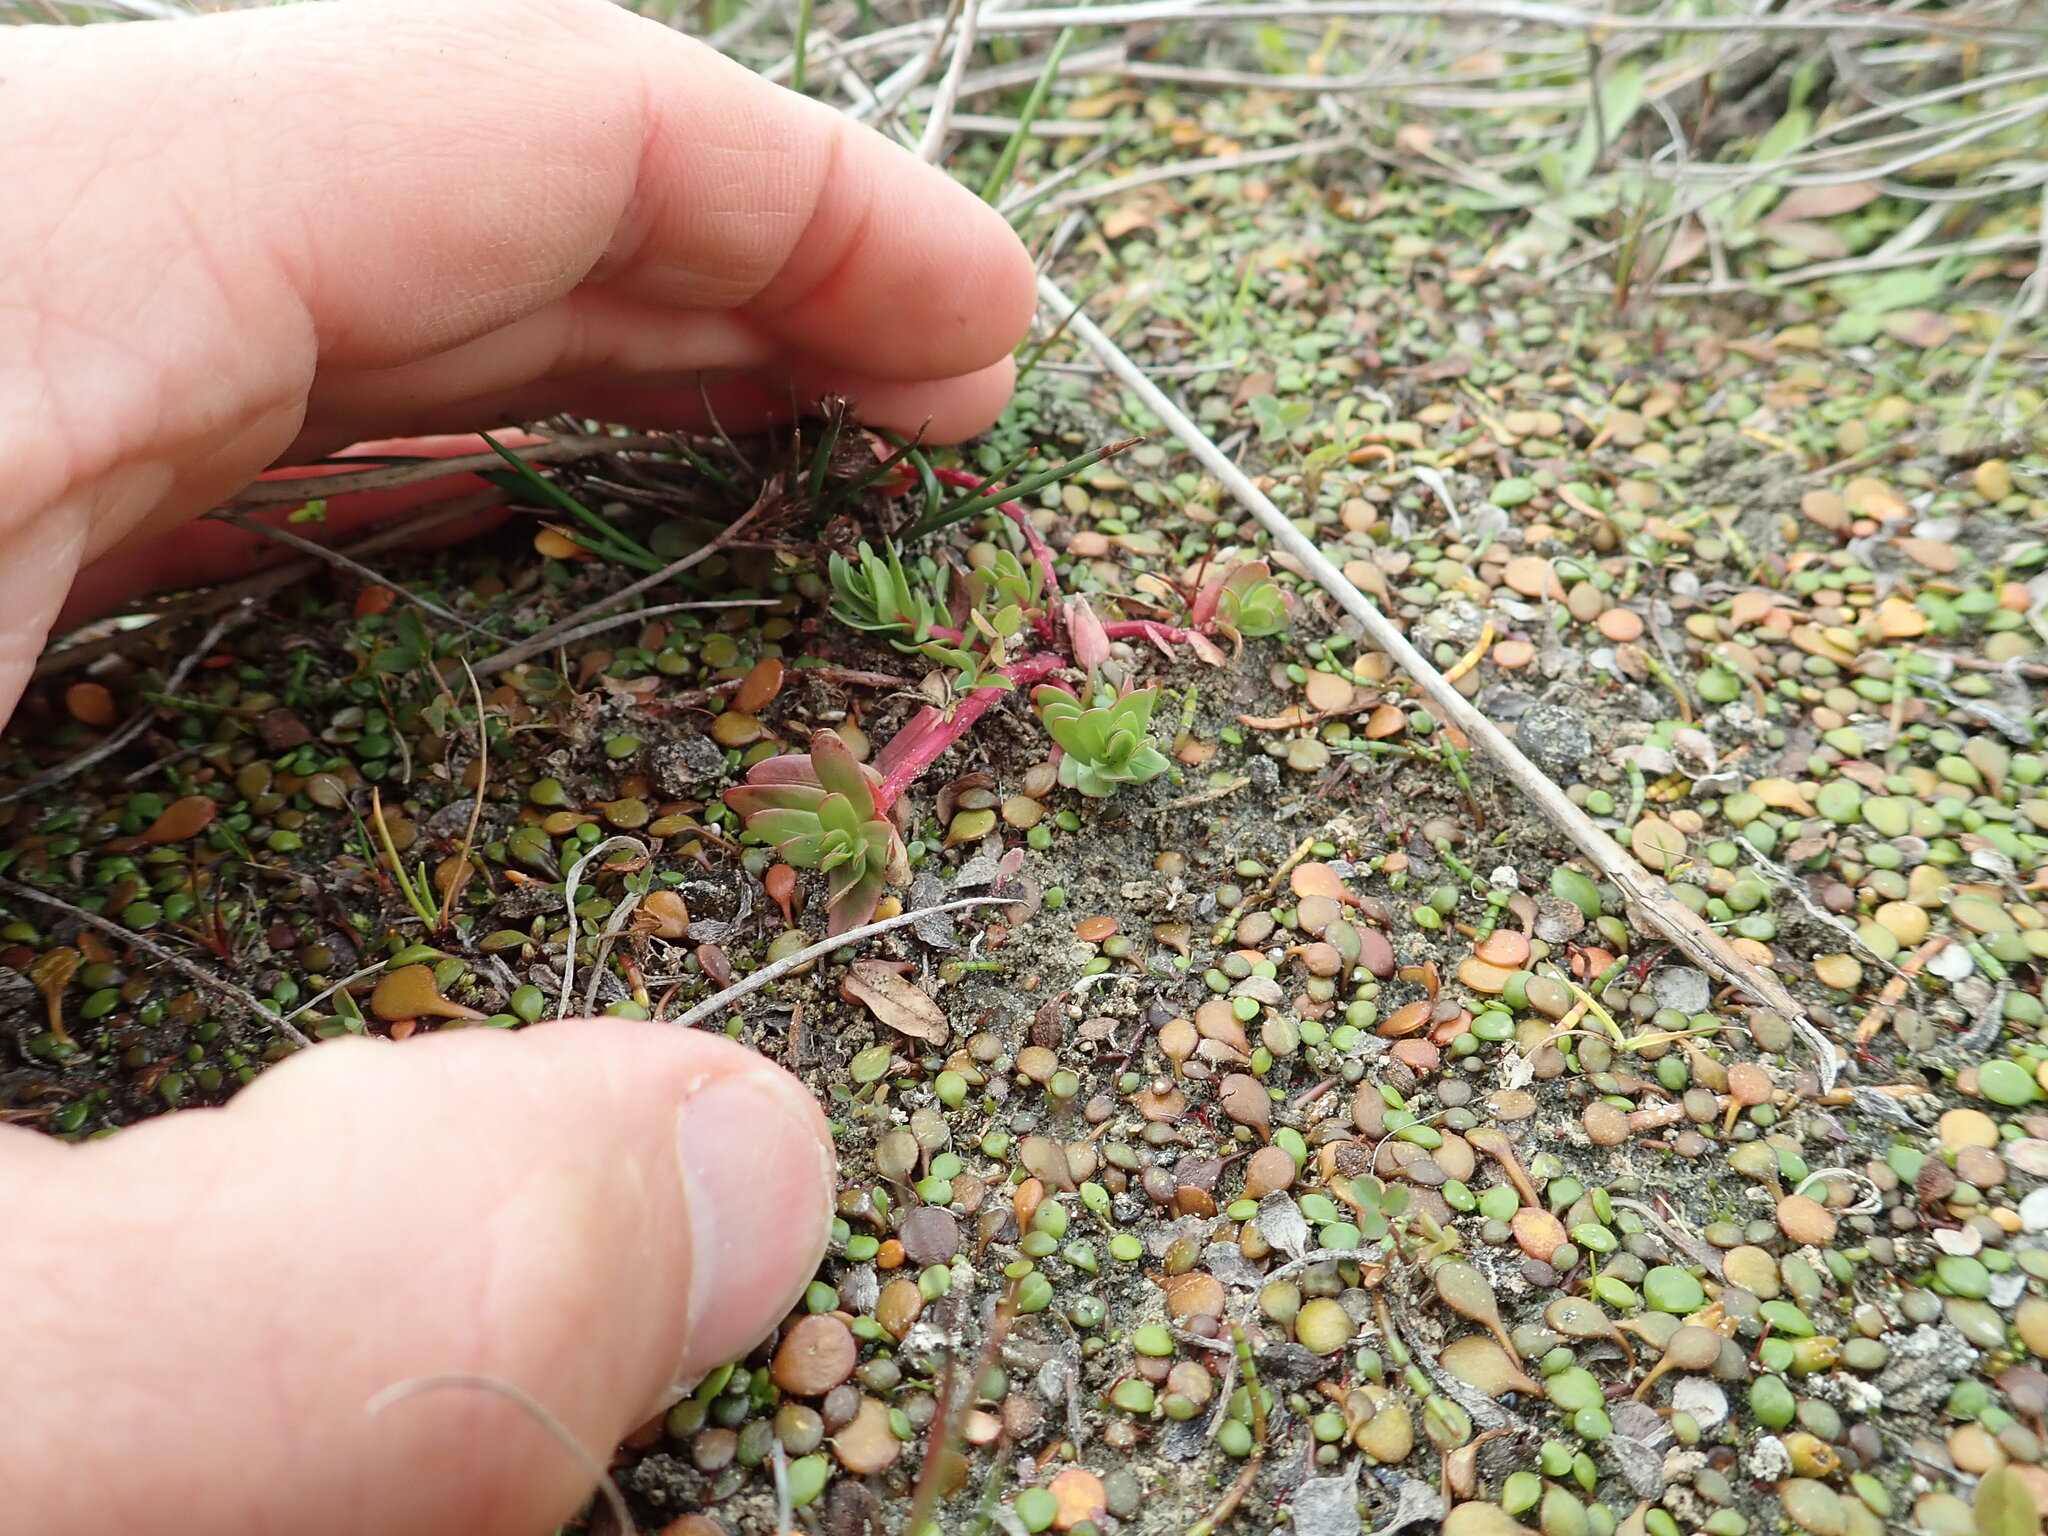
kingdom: Plantae
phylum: Tracheophyta
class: Magnoliopsida
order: Myrtales
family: Lythraceae
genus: Lythrum
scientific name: Lythrum hyssopifolia
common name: Grass-poly
